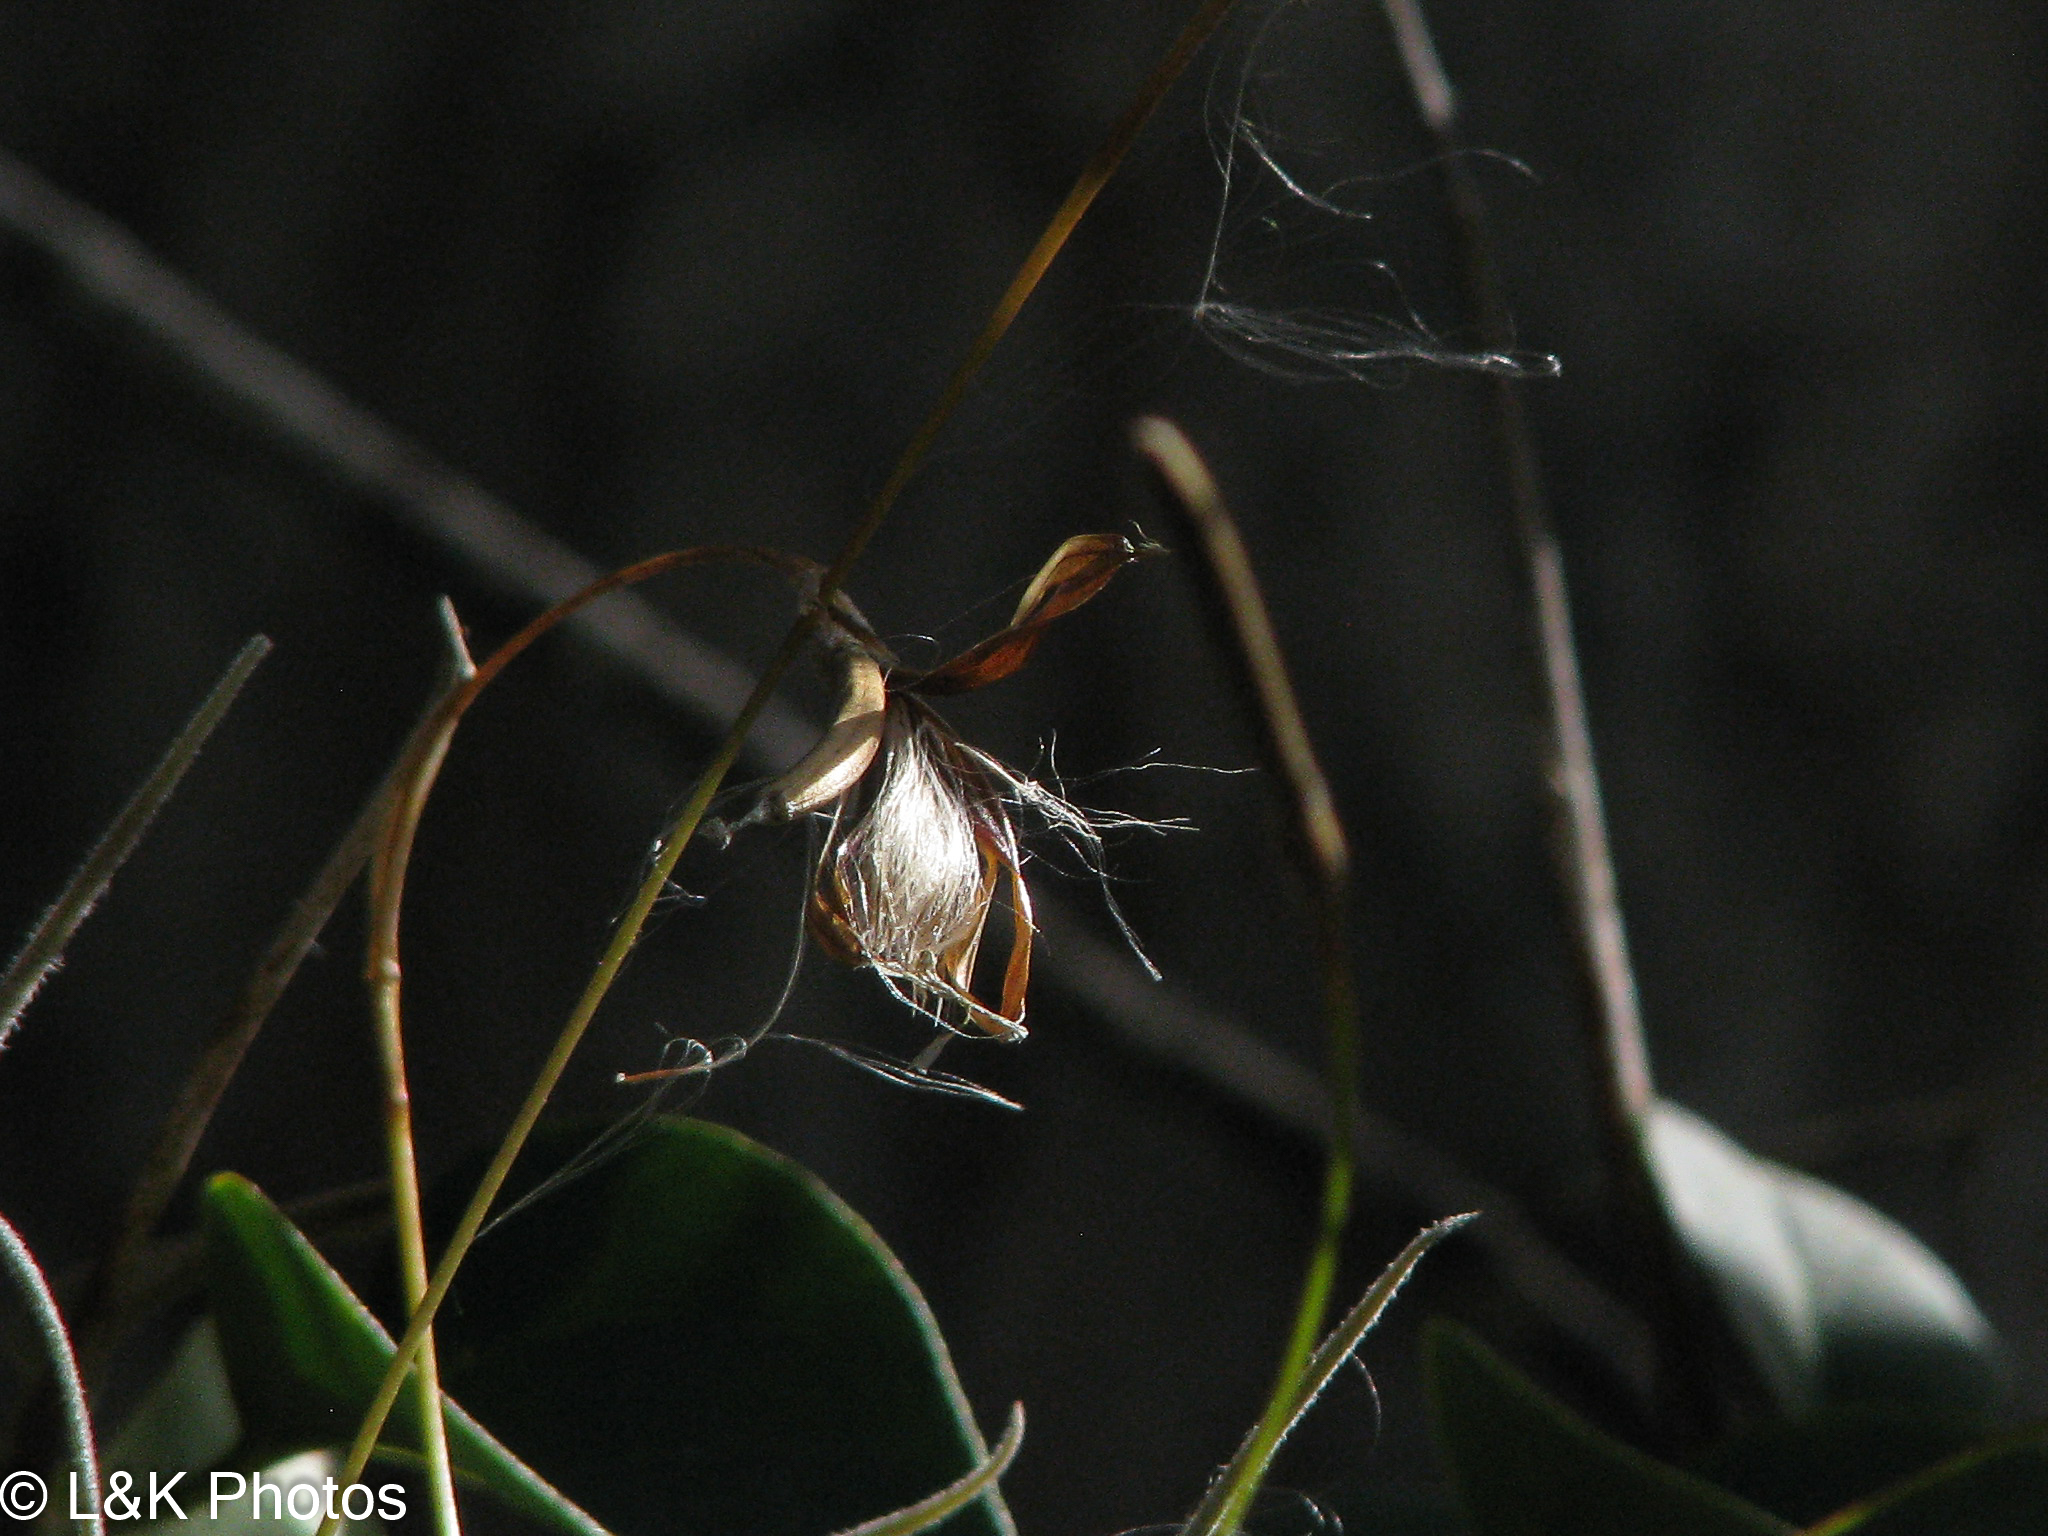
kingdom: Plantae
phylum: Tracheophyta
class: Liliopsida
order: Poales
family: Bromeliaceae
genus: Tillandsia
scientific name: Tillandsia recurvata
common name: Small ballmoss
